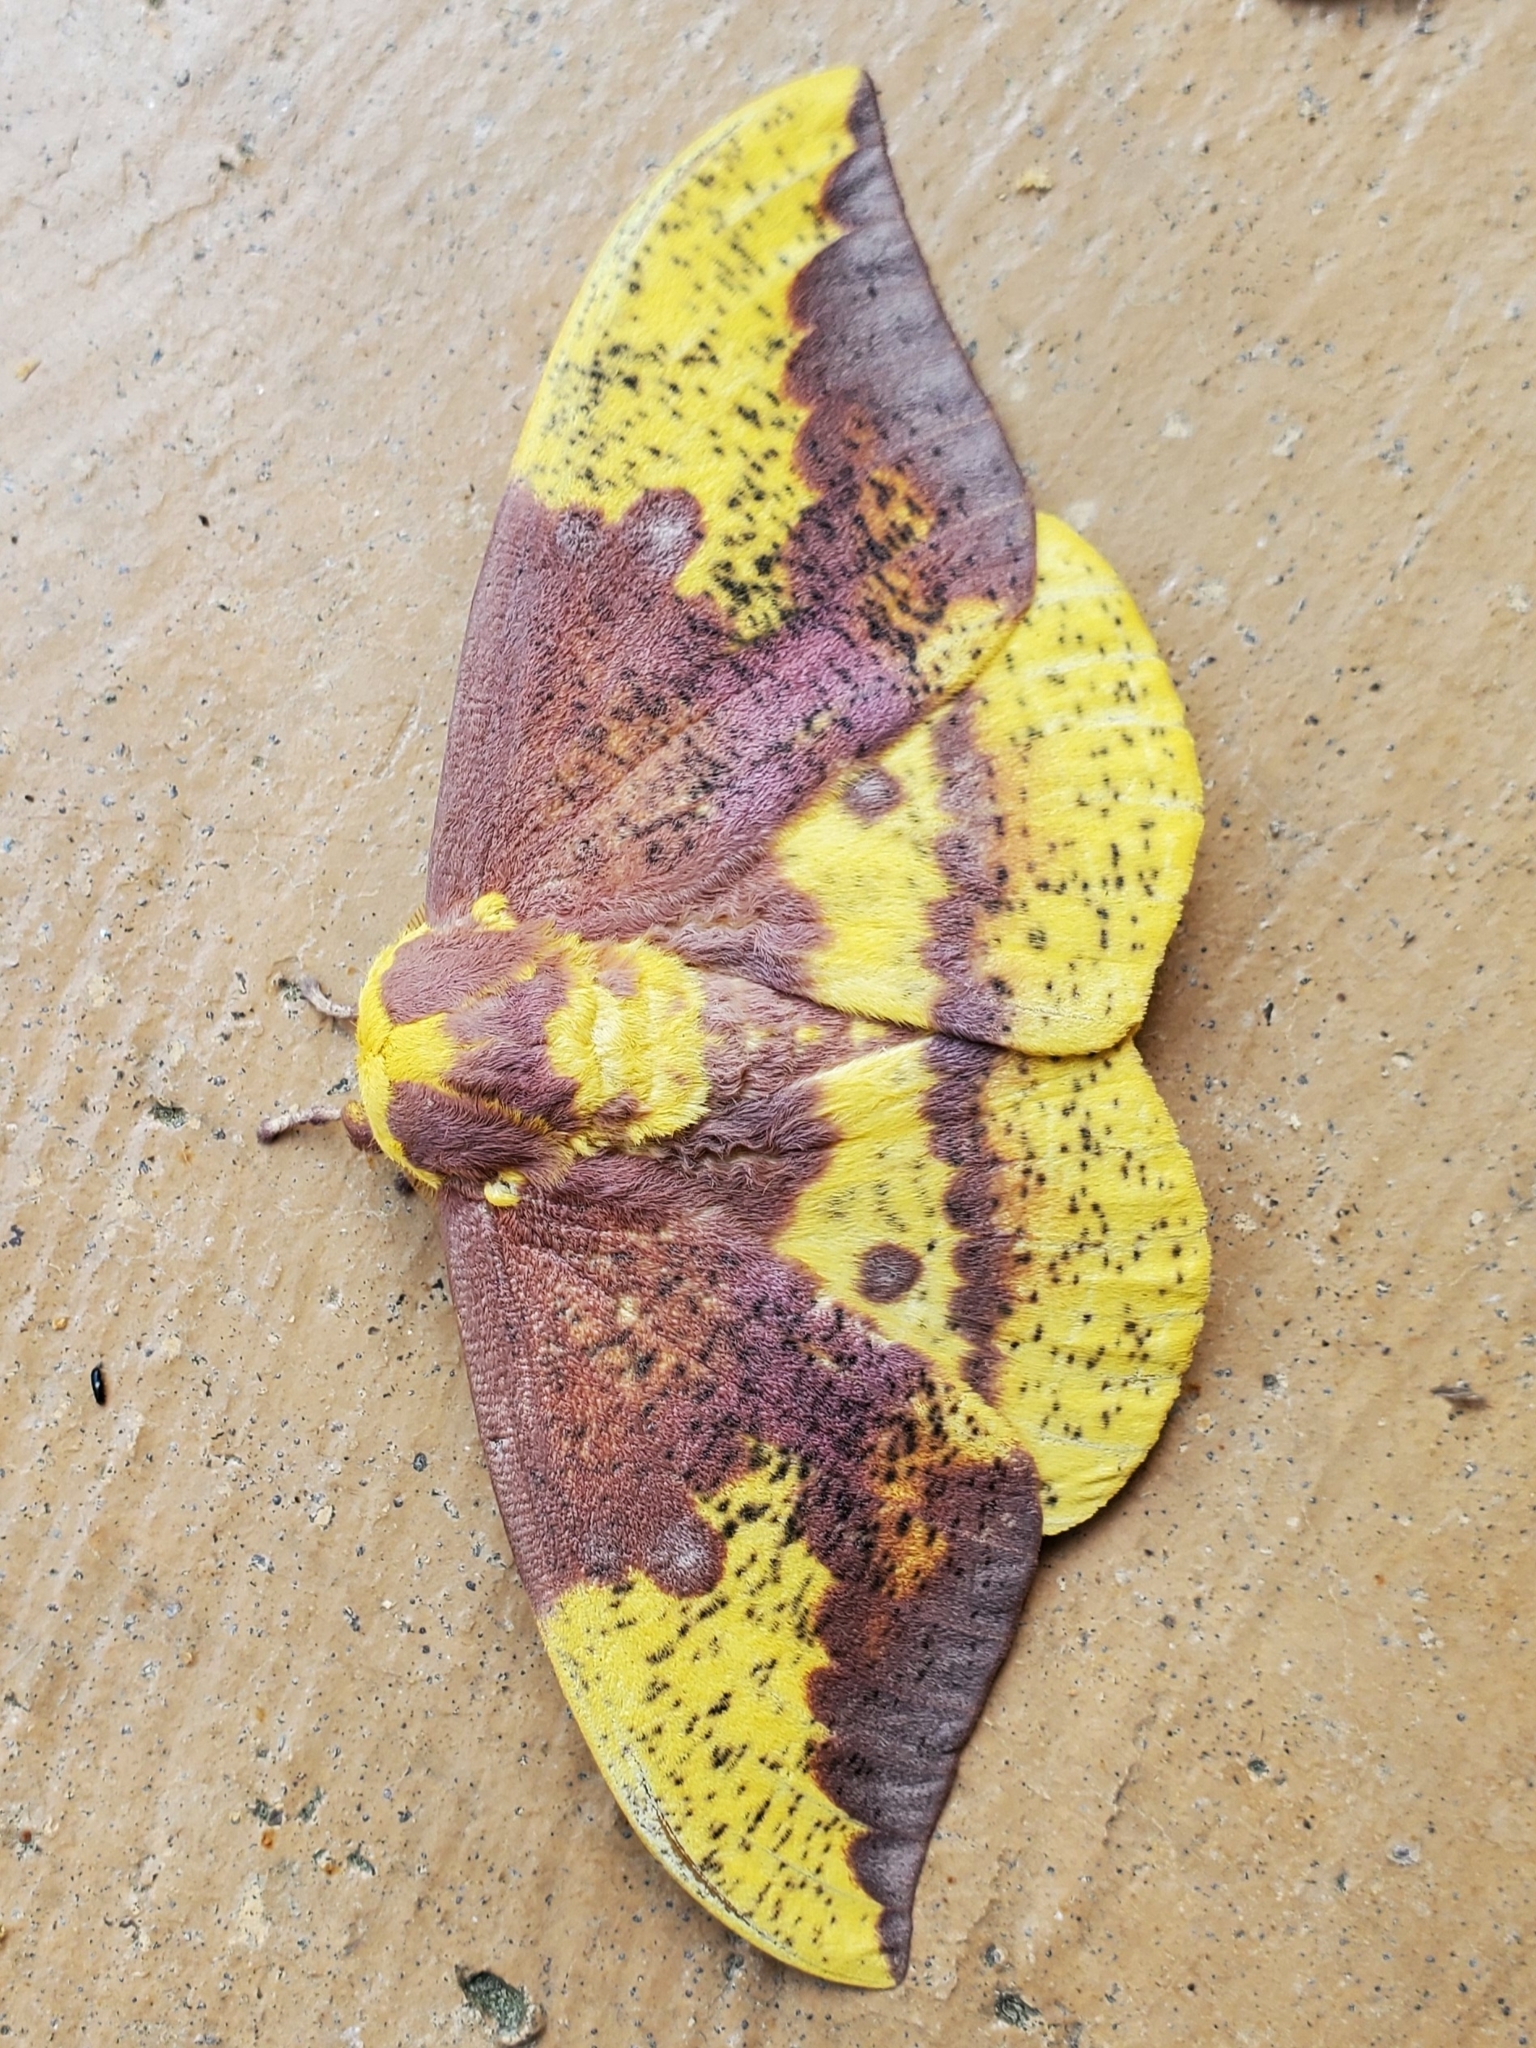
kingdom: Animalia
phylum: Arthropoda
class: Insecta
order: Lepidoptera
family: Saturniidae
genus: Eacles
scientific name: Eacles imperialis
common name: Imperial moth
